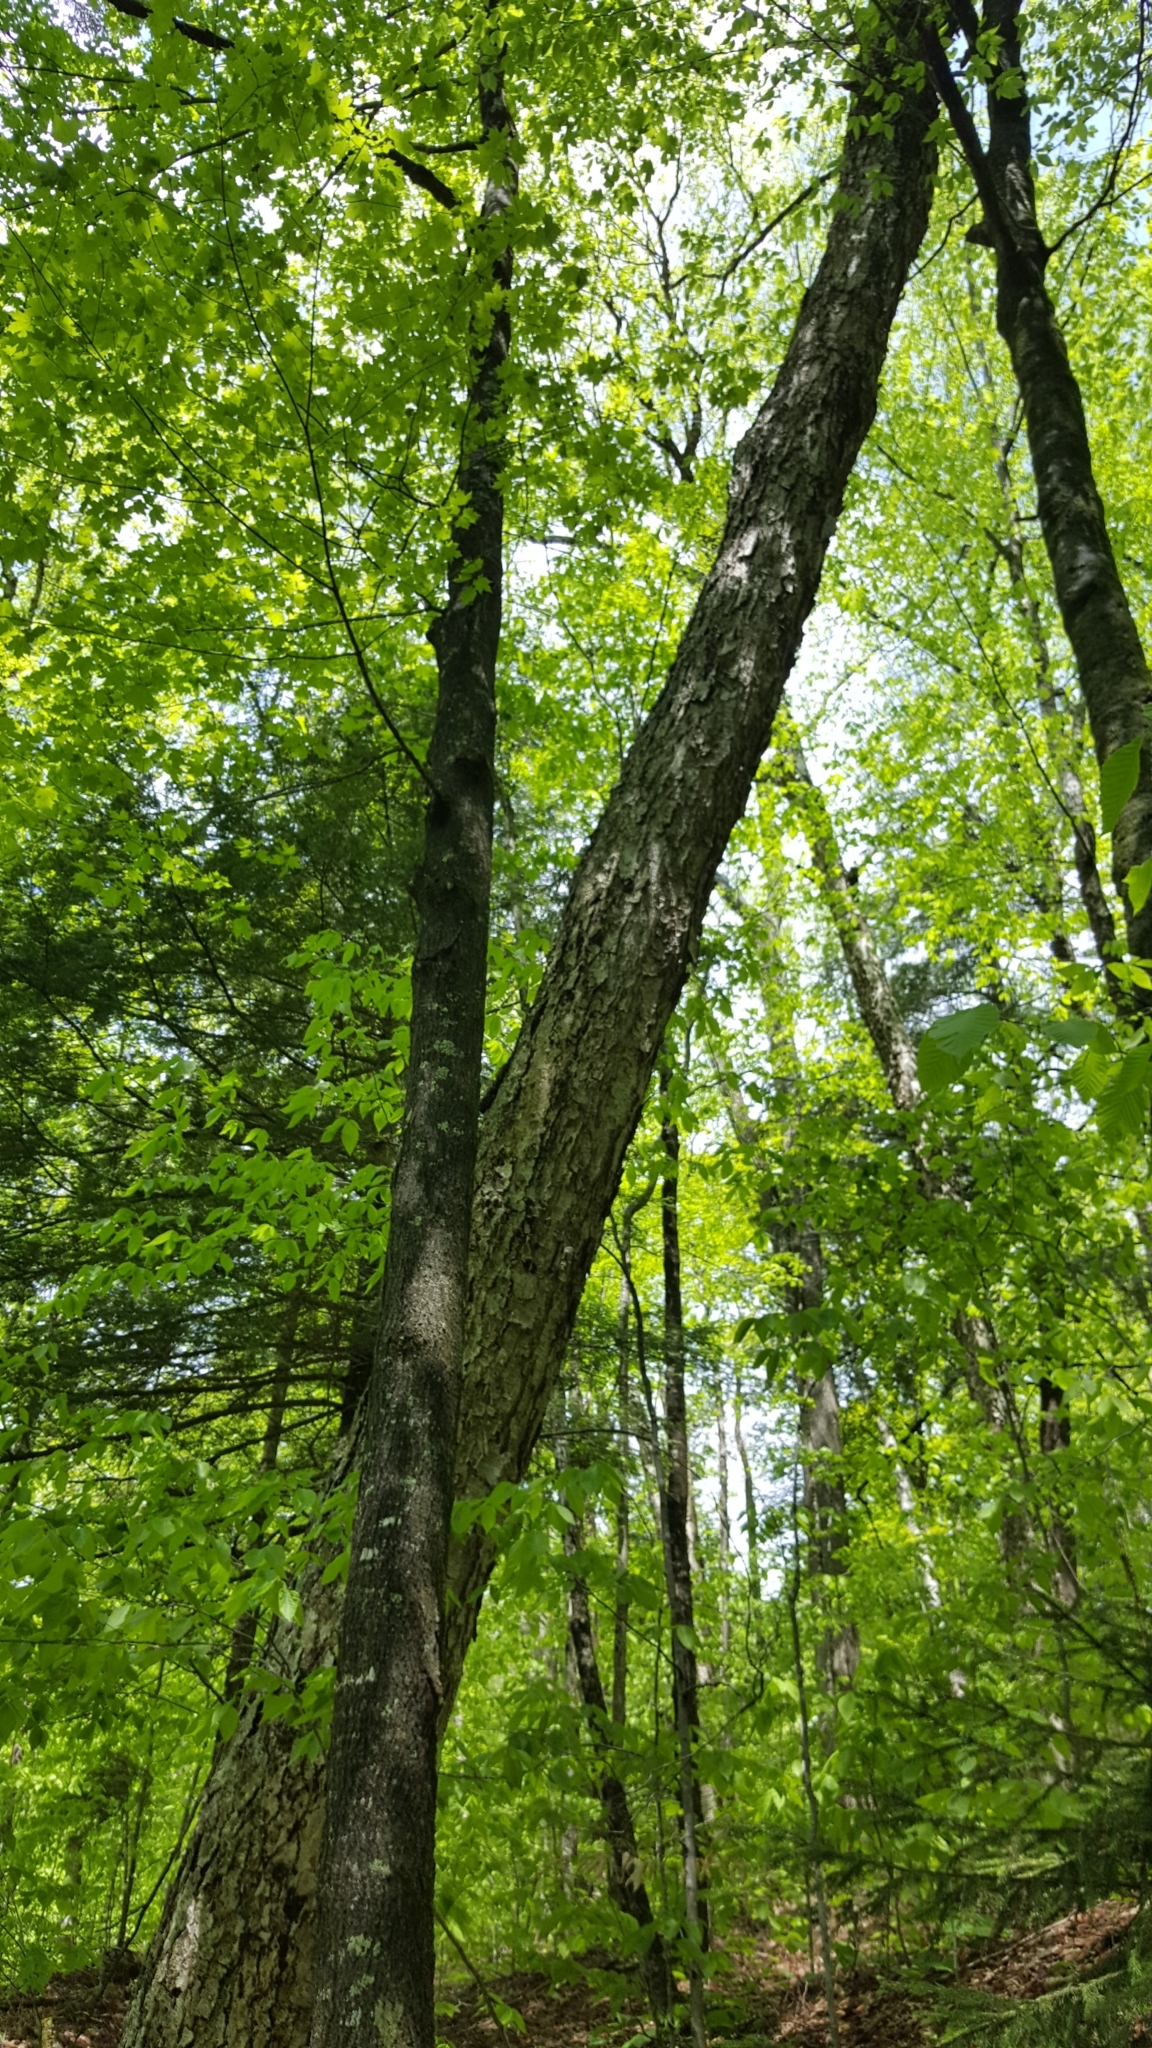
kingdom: Plantae
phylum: Tracheophyta
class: Magnoliopsida
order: Fagales
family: Betulaceae
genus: Betula
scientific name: Betula alleghaniensis
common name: Yellow birch
